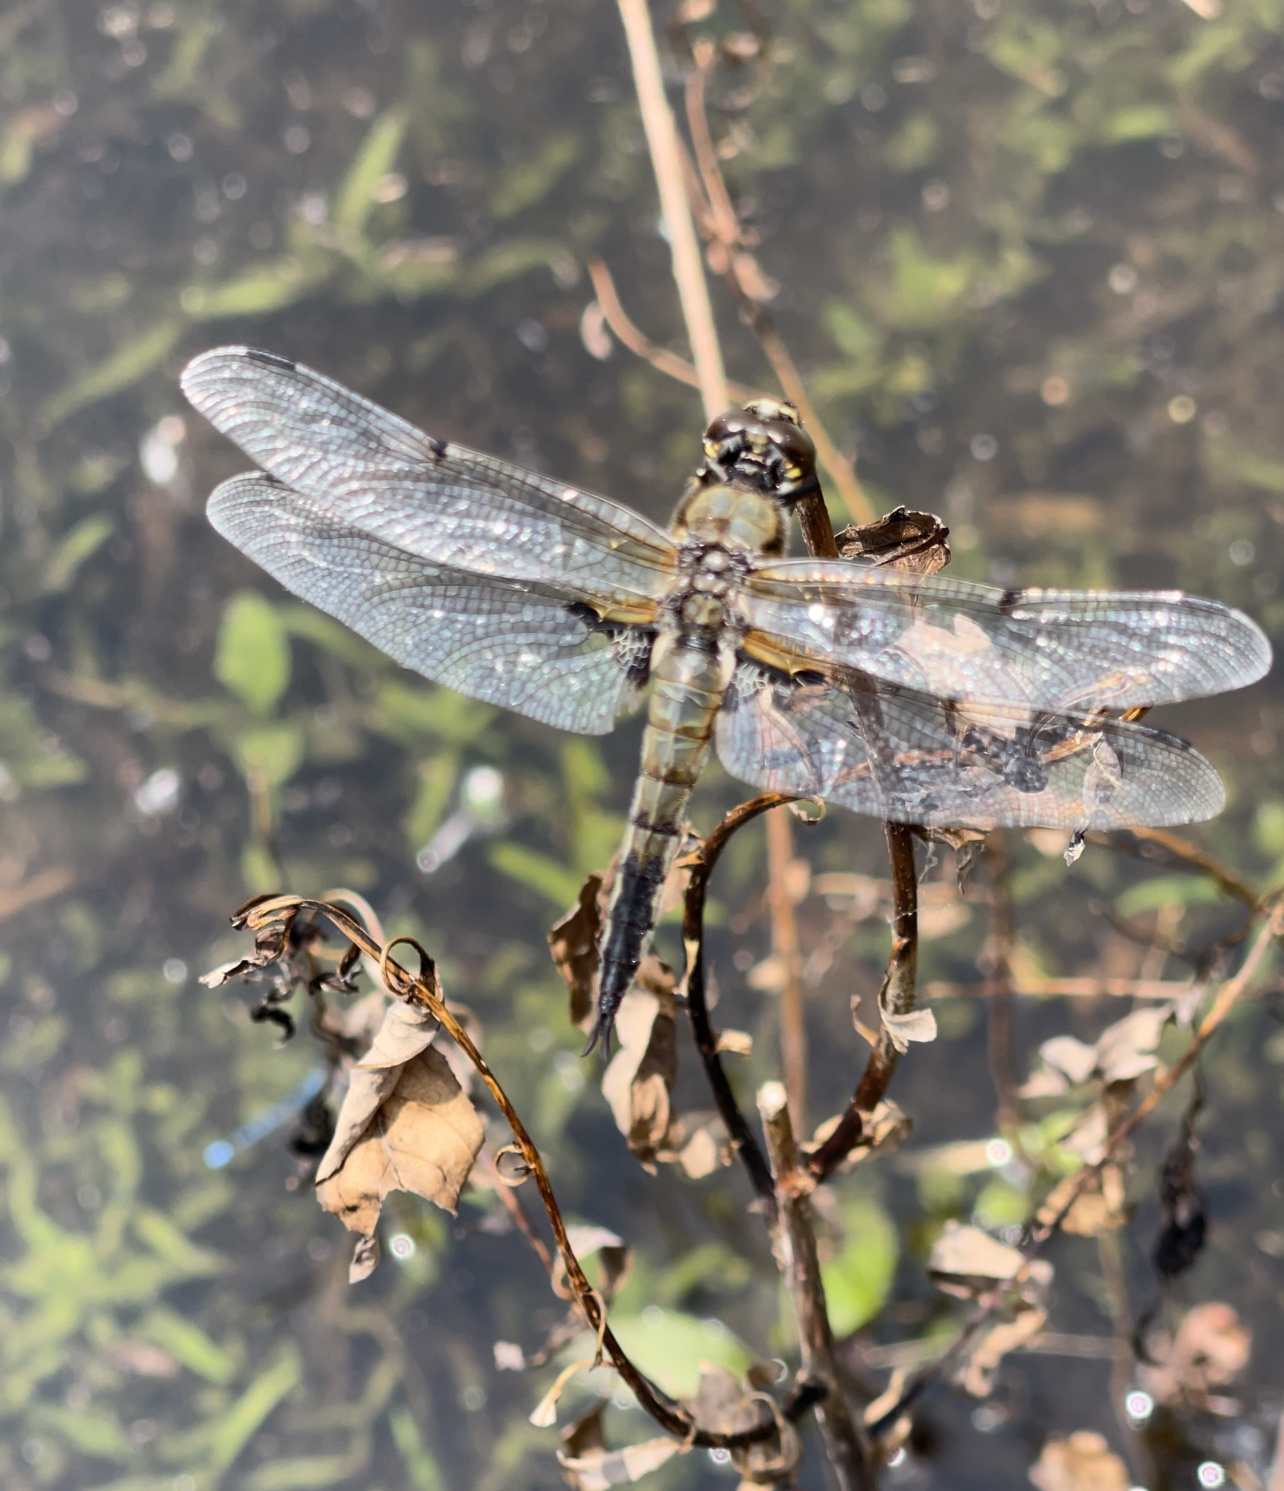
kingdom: Animalia
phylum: Arthropoda
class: Insecta
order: Odonata
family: Libellulidae
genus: Libellula
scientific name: Libellula quadrimaculata
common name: Four-spotted chaser
